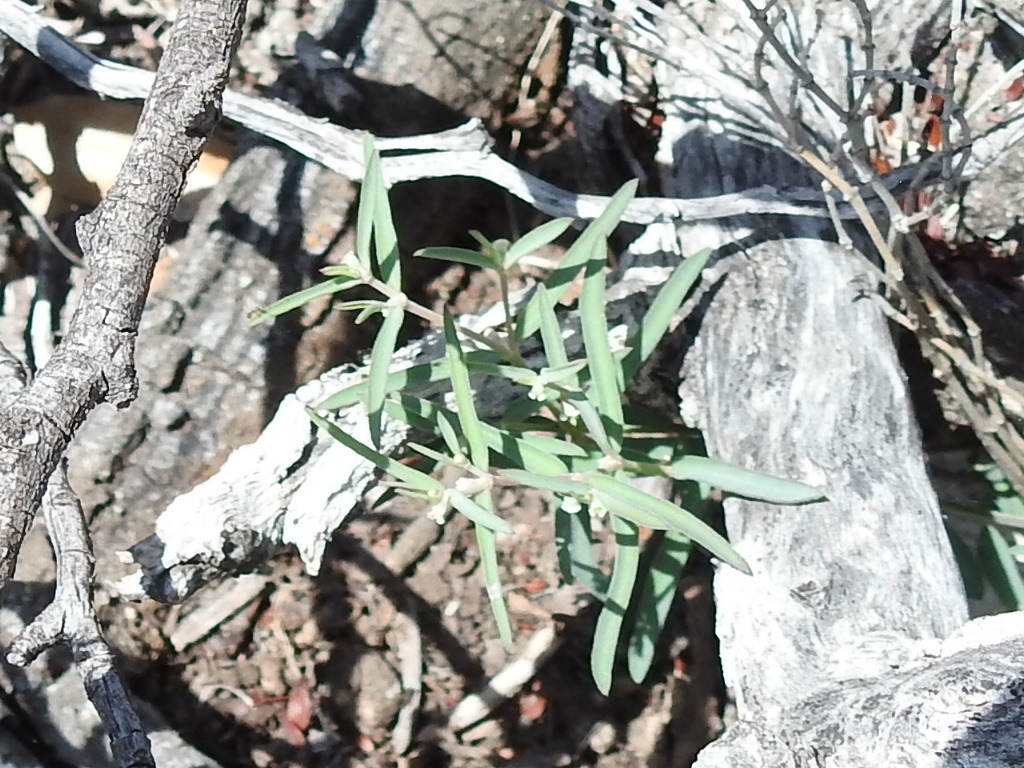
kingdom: Plantae
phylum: Tracheophyta
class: Magnoliopsida
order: Malpighiales
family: Euphorbiaceae
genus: Euphorbia
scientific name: Euphorbia angusta
